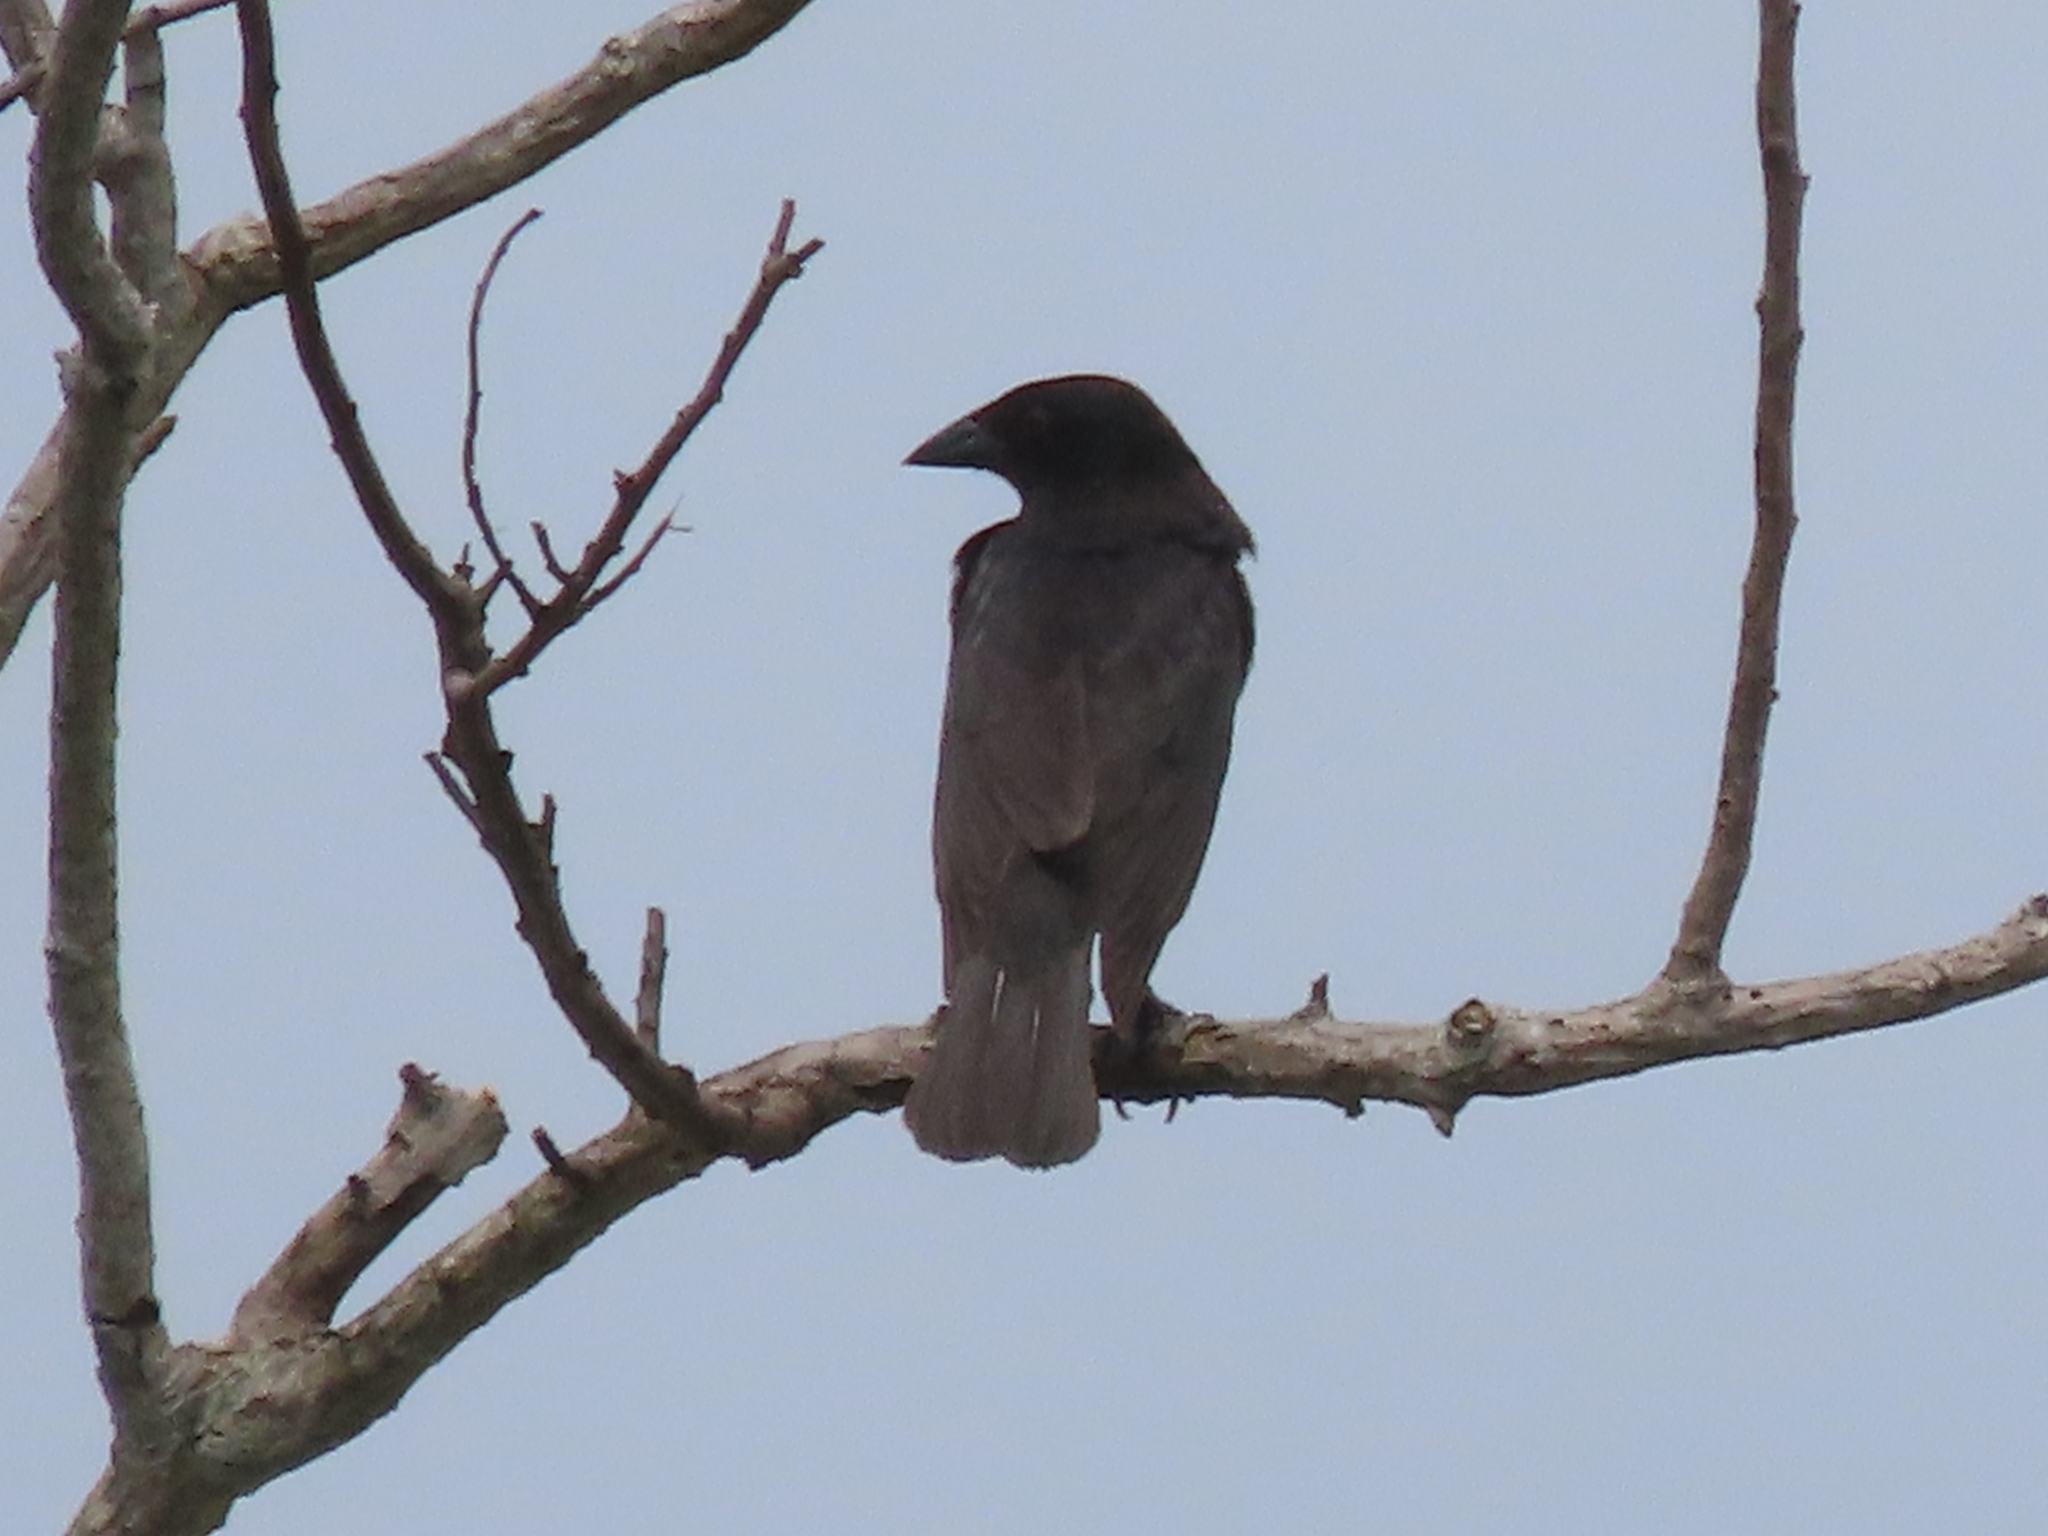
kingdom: Animalia
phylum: Chordata
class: Aves
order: Passeriformes
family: Icteridae
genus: Molothrus
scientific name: Molothrus aeneus
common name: Bronzed cowbird
